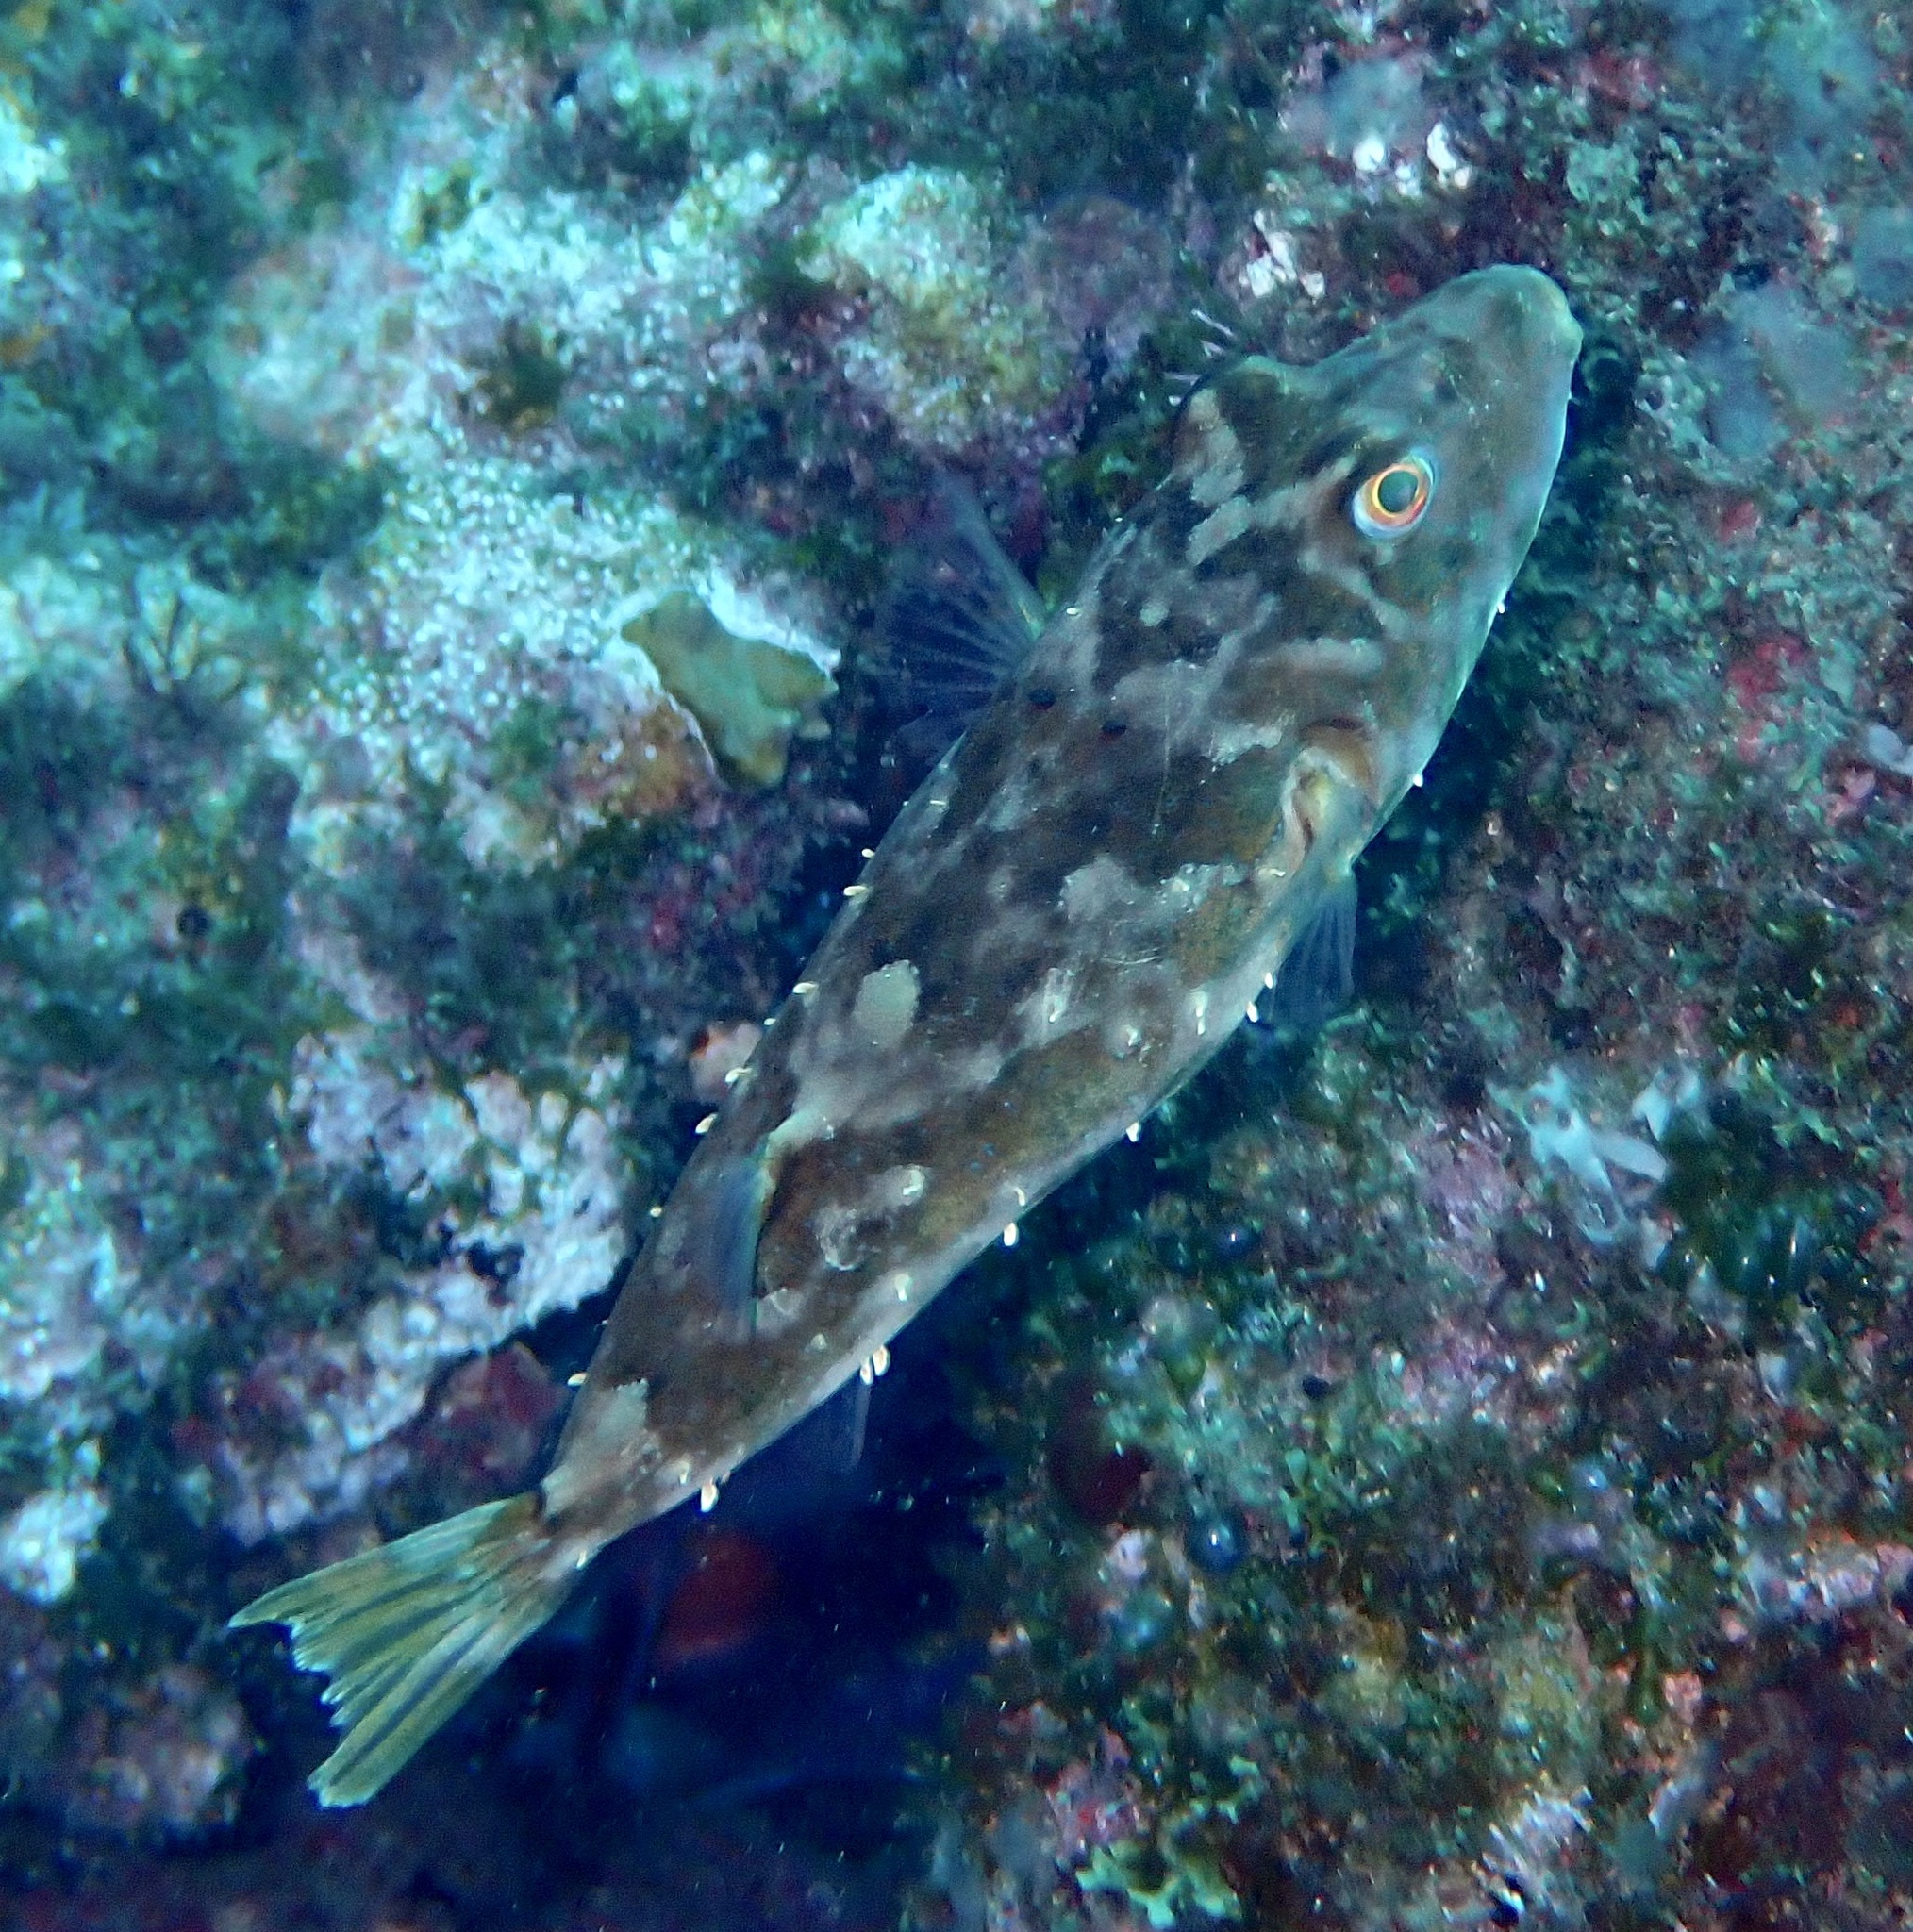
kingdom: Animalia
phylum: Chordata
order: Tetraodontiformes
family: Tetraodontidae
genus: Sphoeroides
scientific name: Sphoeroides marmoratus
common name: Guinean puffer
